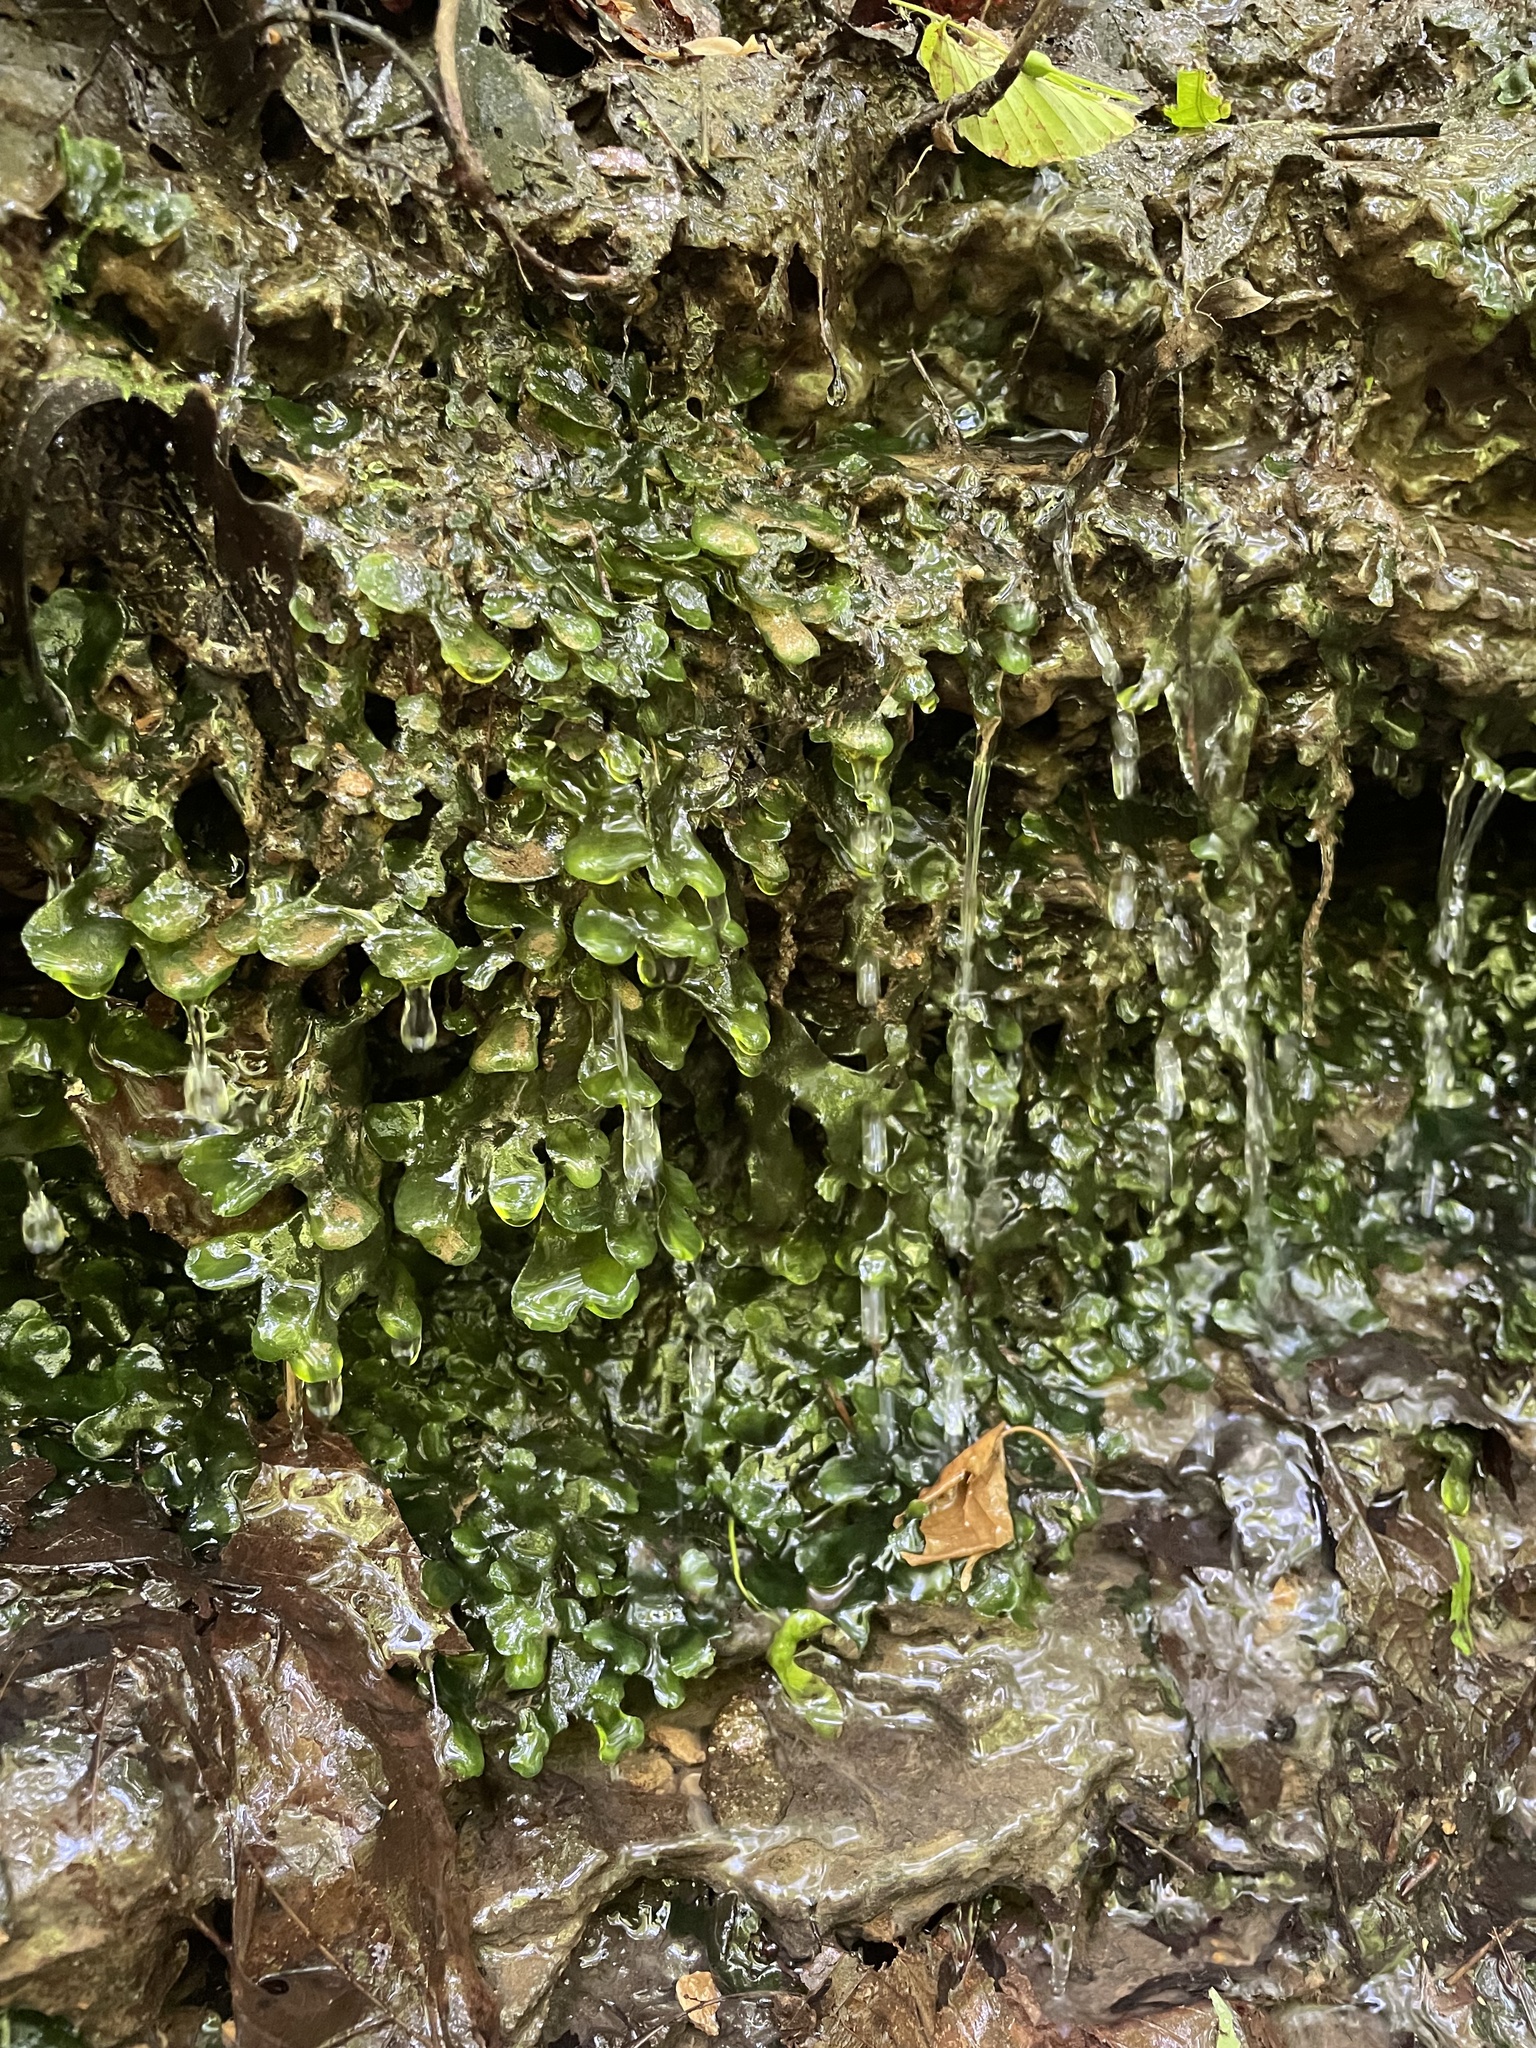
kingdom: Plantae
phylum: Marchantiophyta
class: Marchantiopsida
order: Marchantiales
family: Dumortieraceae
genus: Dumortiera
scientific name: Dumortiera hirsuta
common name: Dumortier's liverwort
